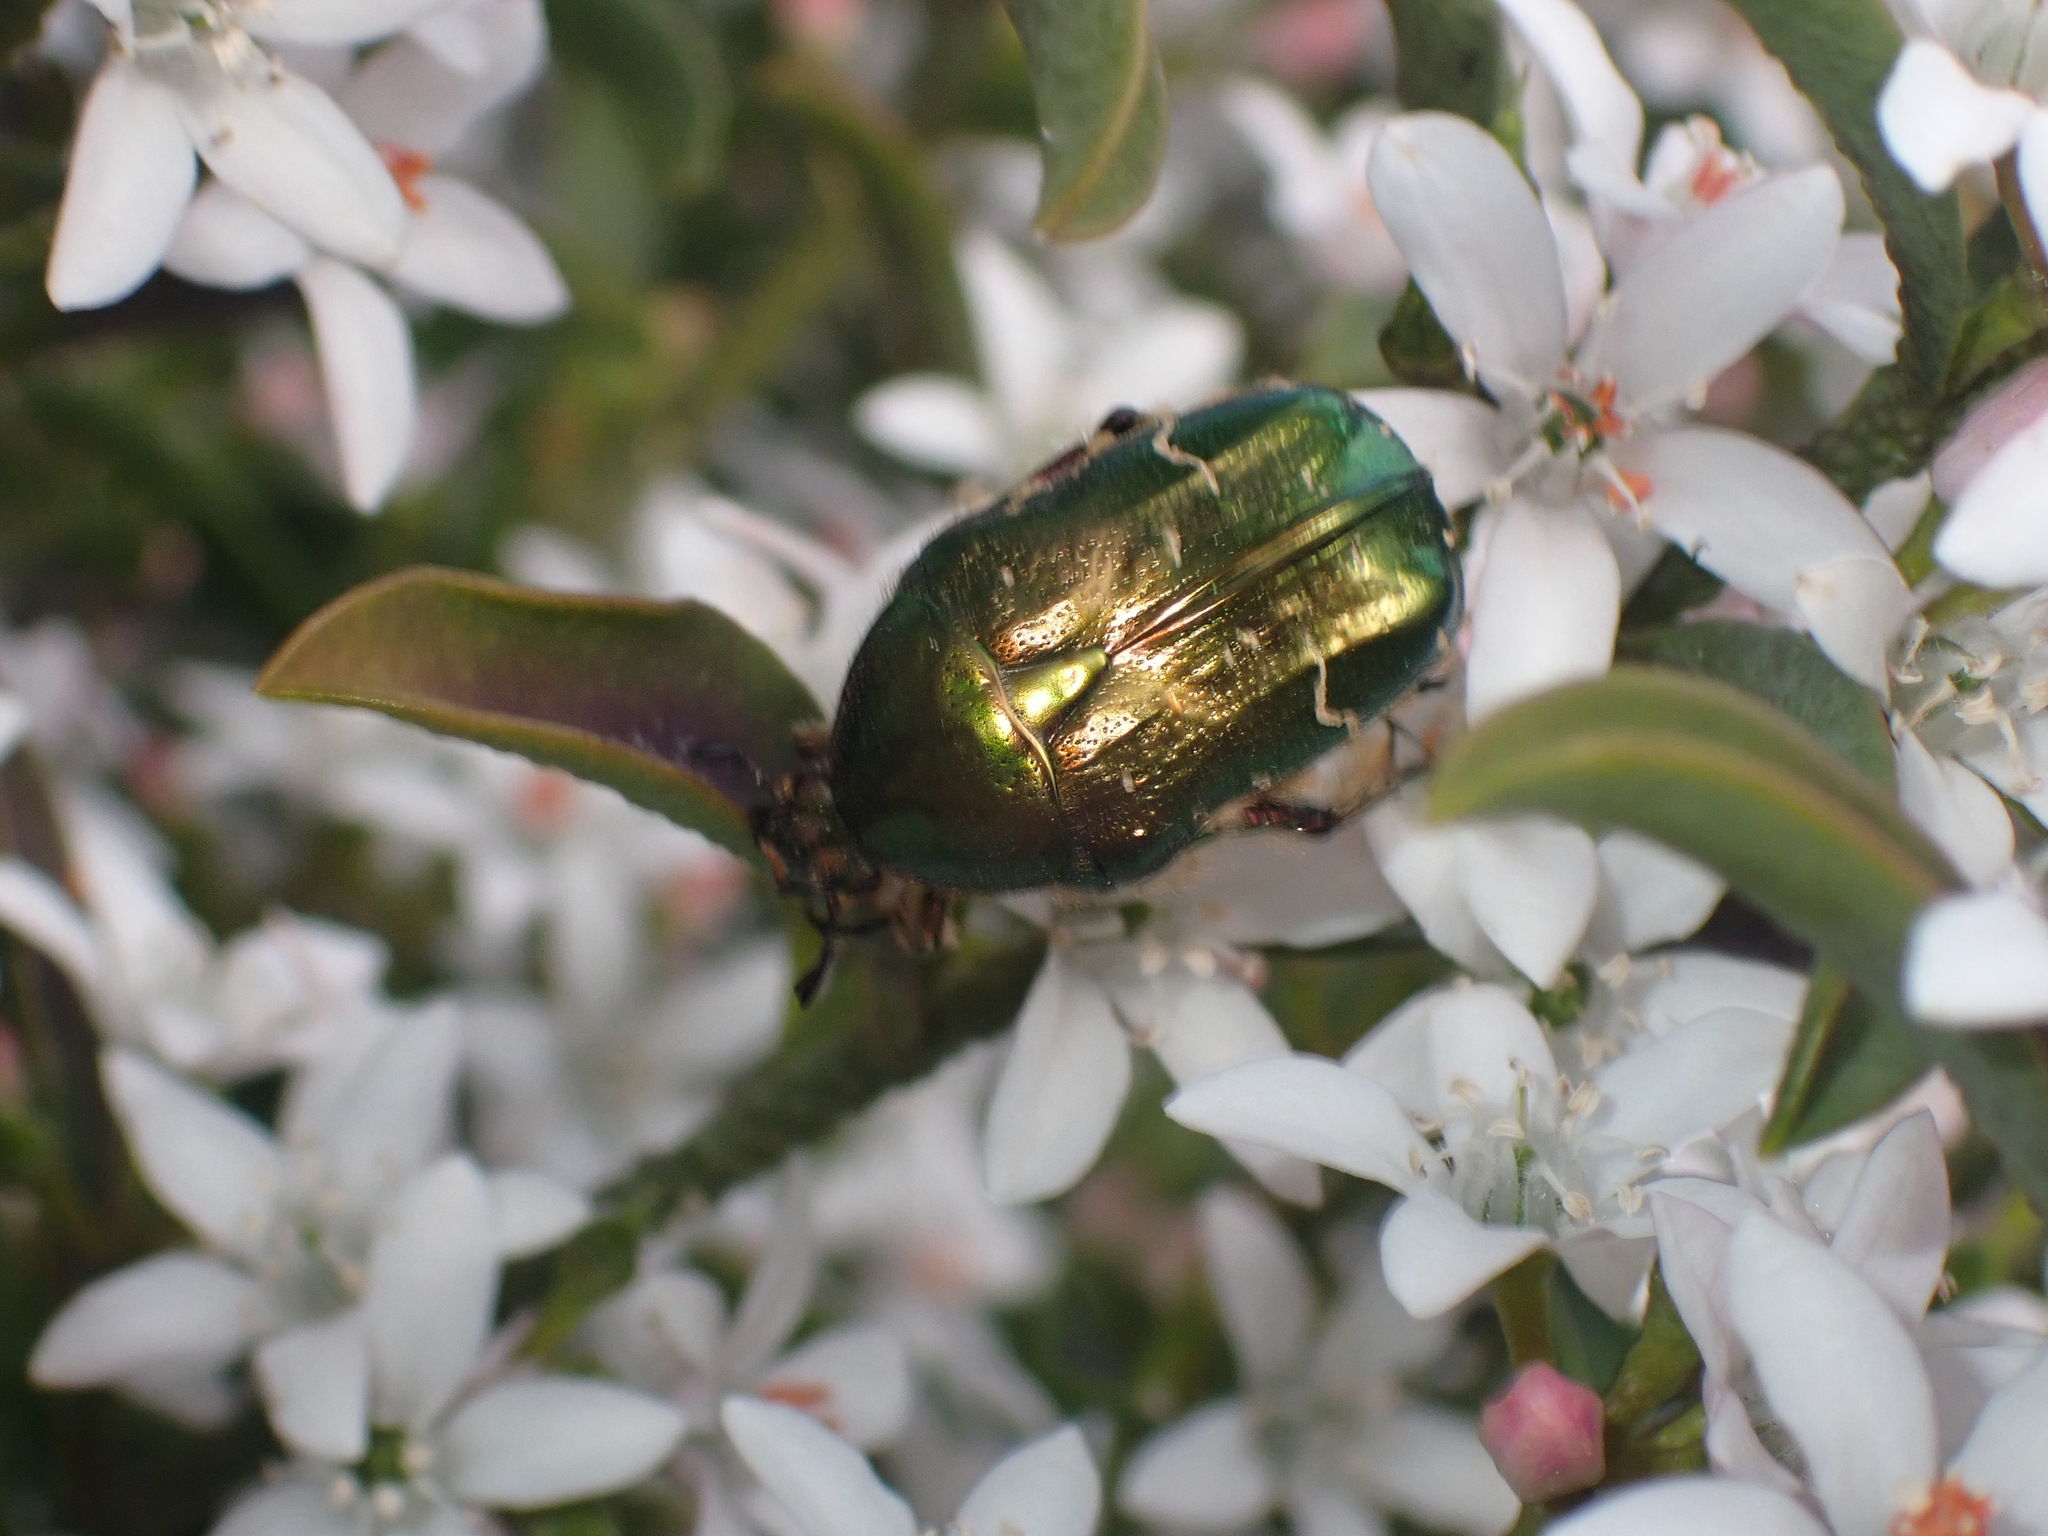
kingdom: Animalia
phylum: Arthropoda
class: Insecta
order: Coleoptera
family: Scarabaeidae
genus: Cetonia
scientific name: Cetonia aurata
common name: Rose chafer
